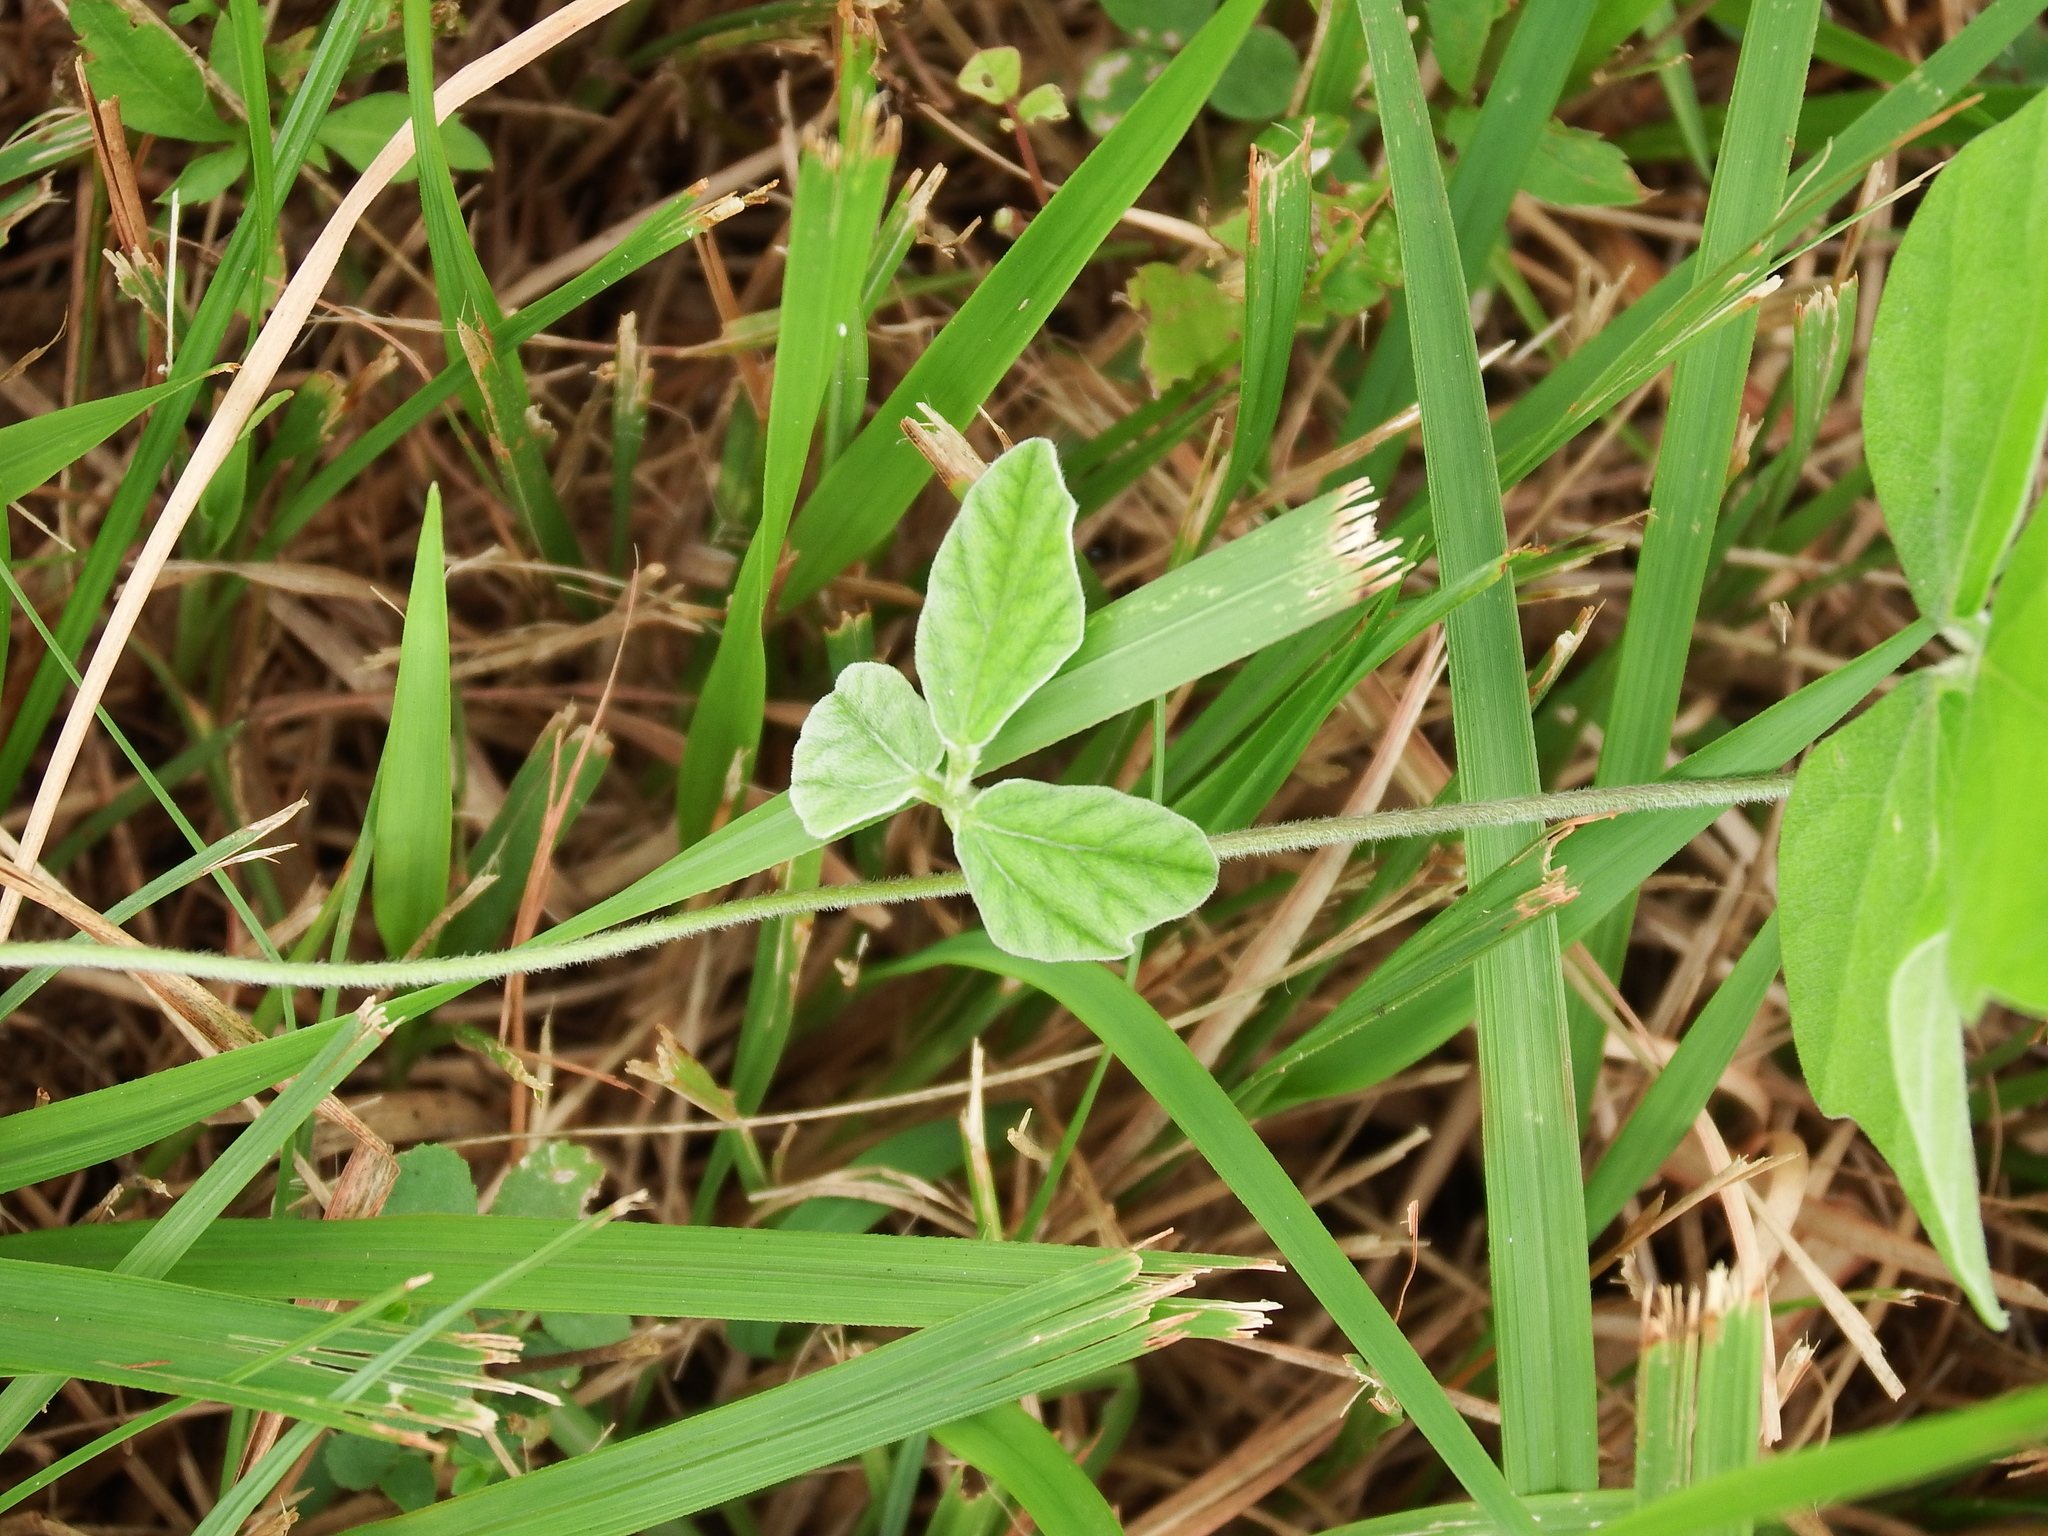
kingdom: Plantae
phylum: Tracheophyta
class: Magnoliopsida
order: Fabales
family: Fabaceae
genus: Macroptilium
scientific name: Macroptilium atropurpureum
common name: Purple bushbean
